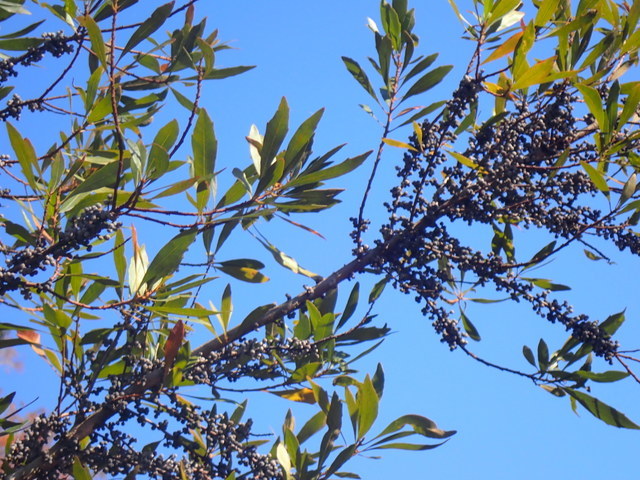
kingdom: Plantae
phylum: Tracheophyta
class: Magnoliopsida
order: Fagales
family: Myricaceae
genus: Morella
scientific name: Morella cerifera
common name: Wax myrtle
